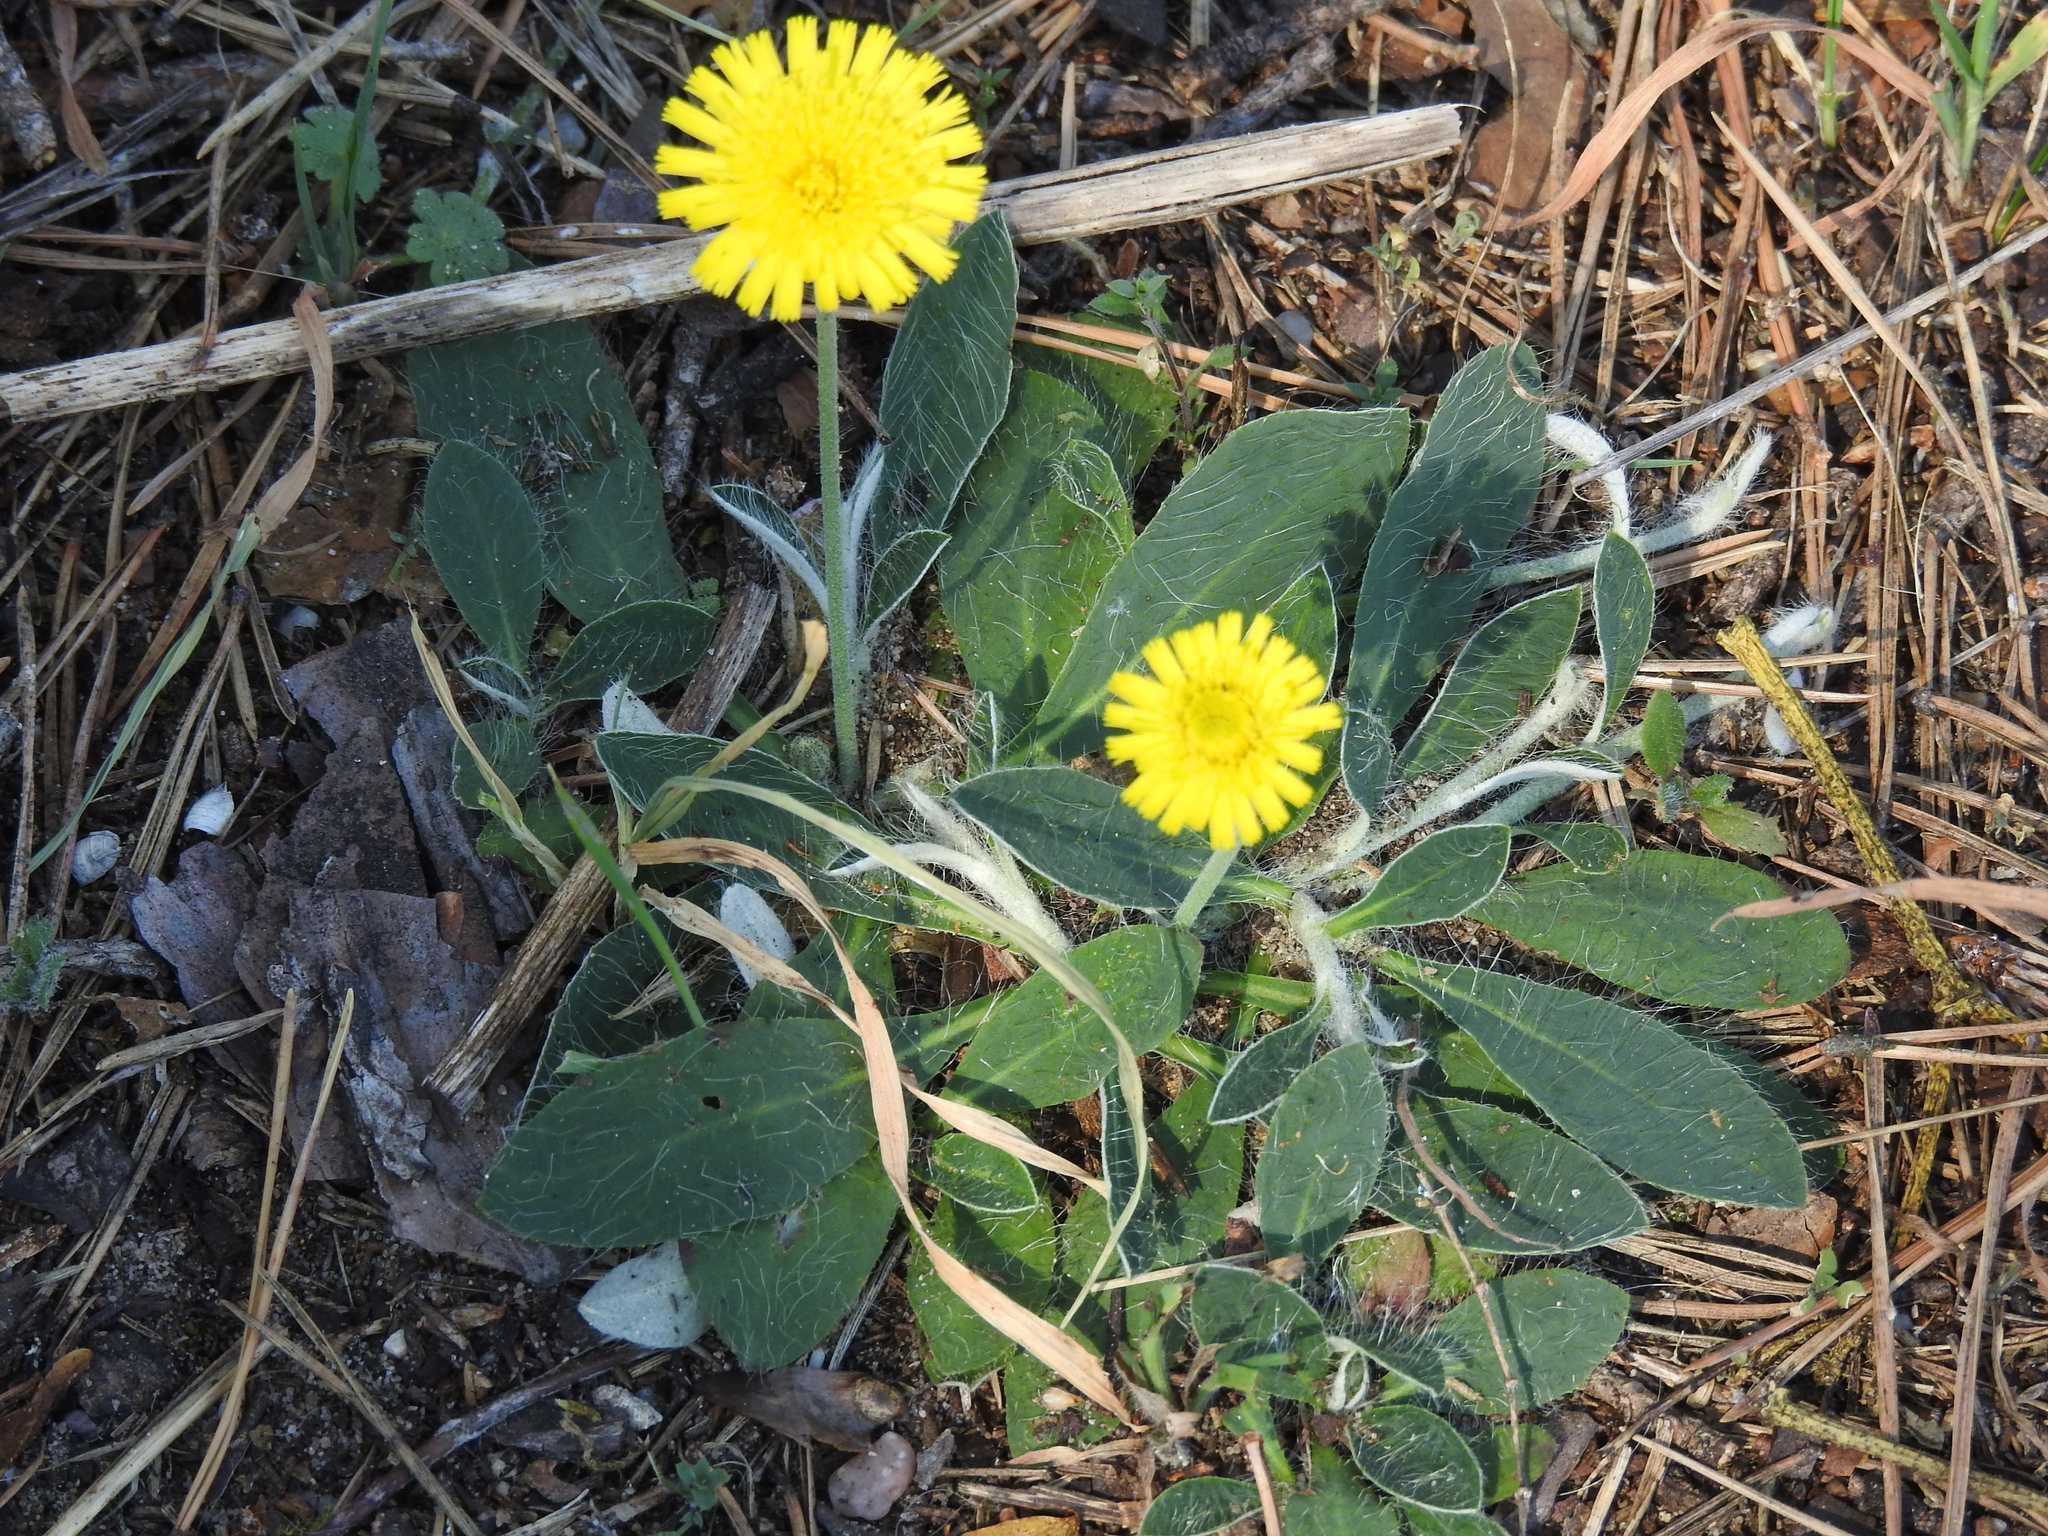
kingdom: Plantae
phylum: Tracheophyta
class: Magnoliopsida
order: Asterales
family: Asteraceae
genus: Pilosella
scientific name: Pilosella officinarum
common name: Mouse-ear hawkweed
